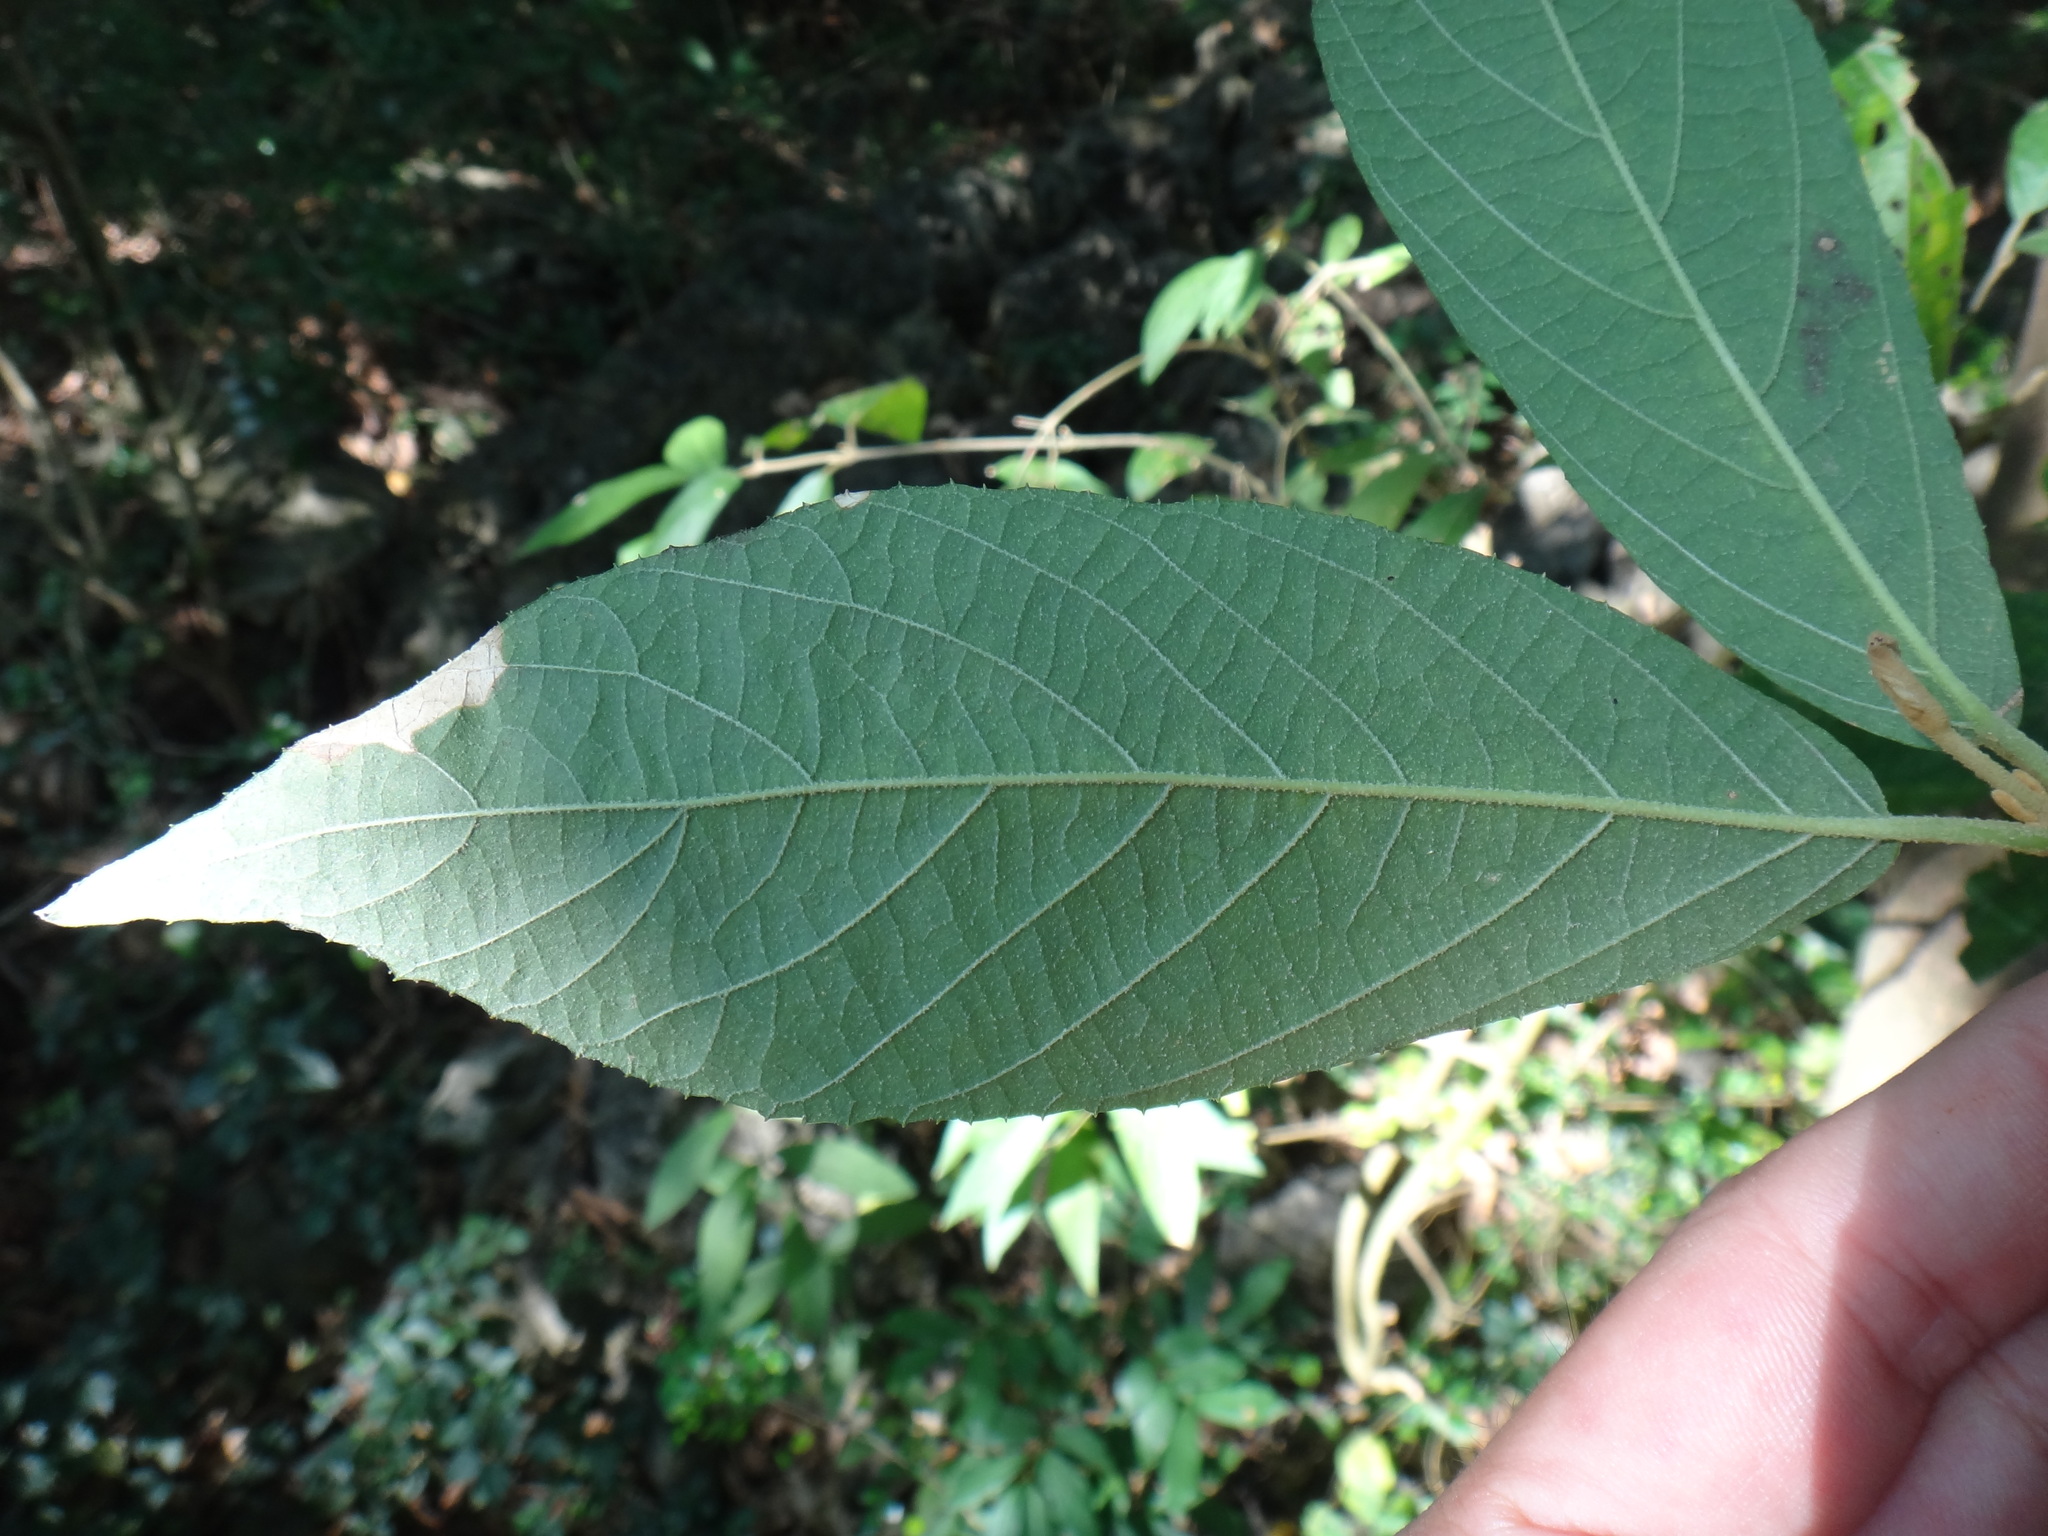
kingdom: Plantae
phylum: Tracheophyta
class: Magnoliopsida
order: Lamiales
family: Lamiaceae
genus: Callicarpa
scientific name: Callicarpa pedunculata
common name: Velvetleaf
